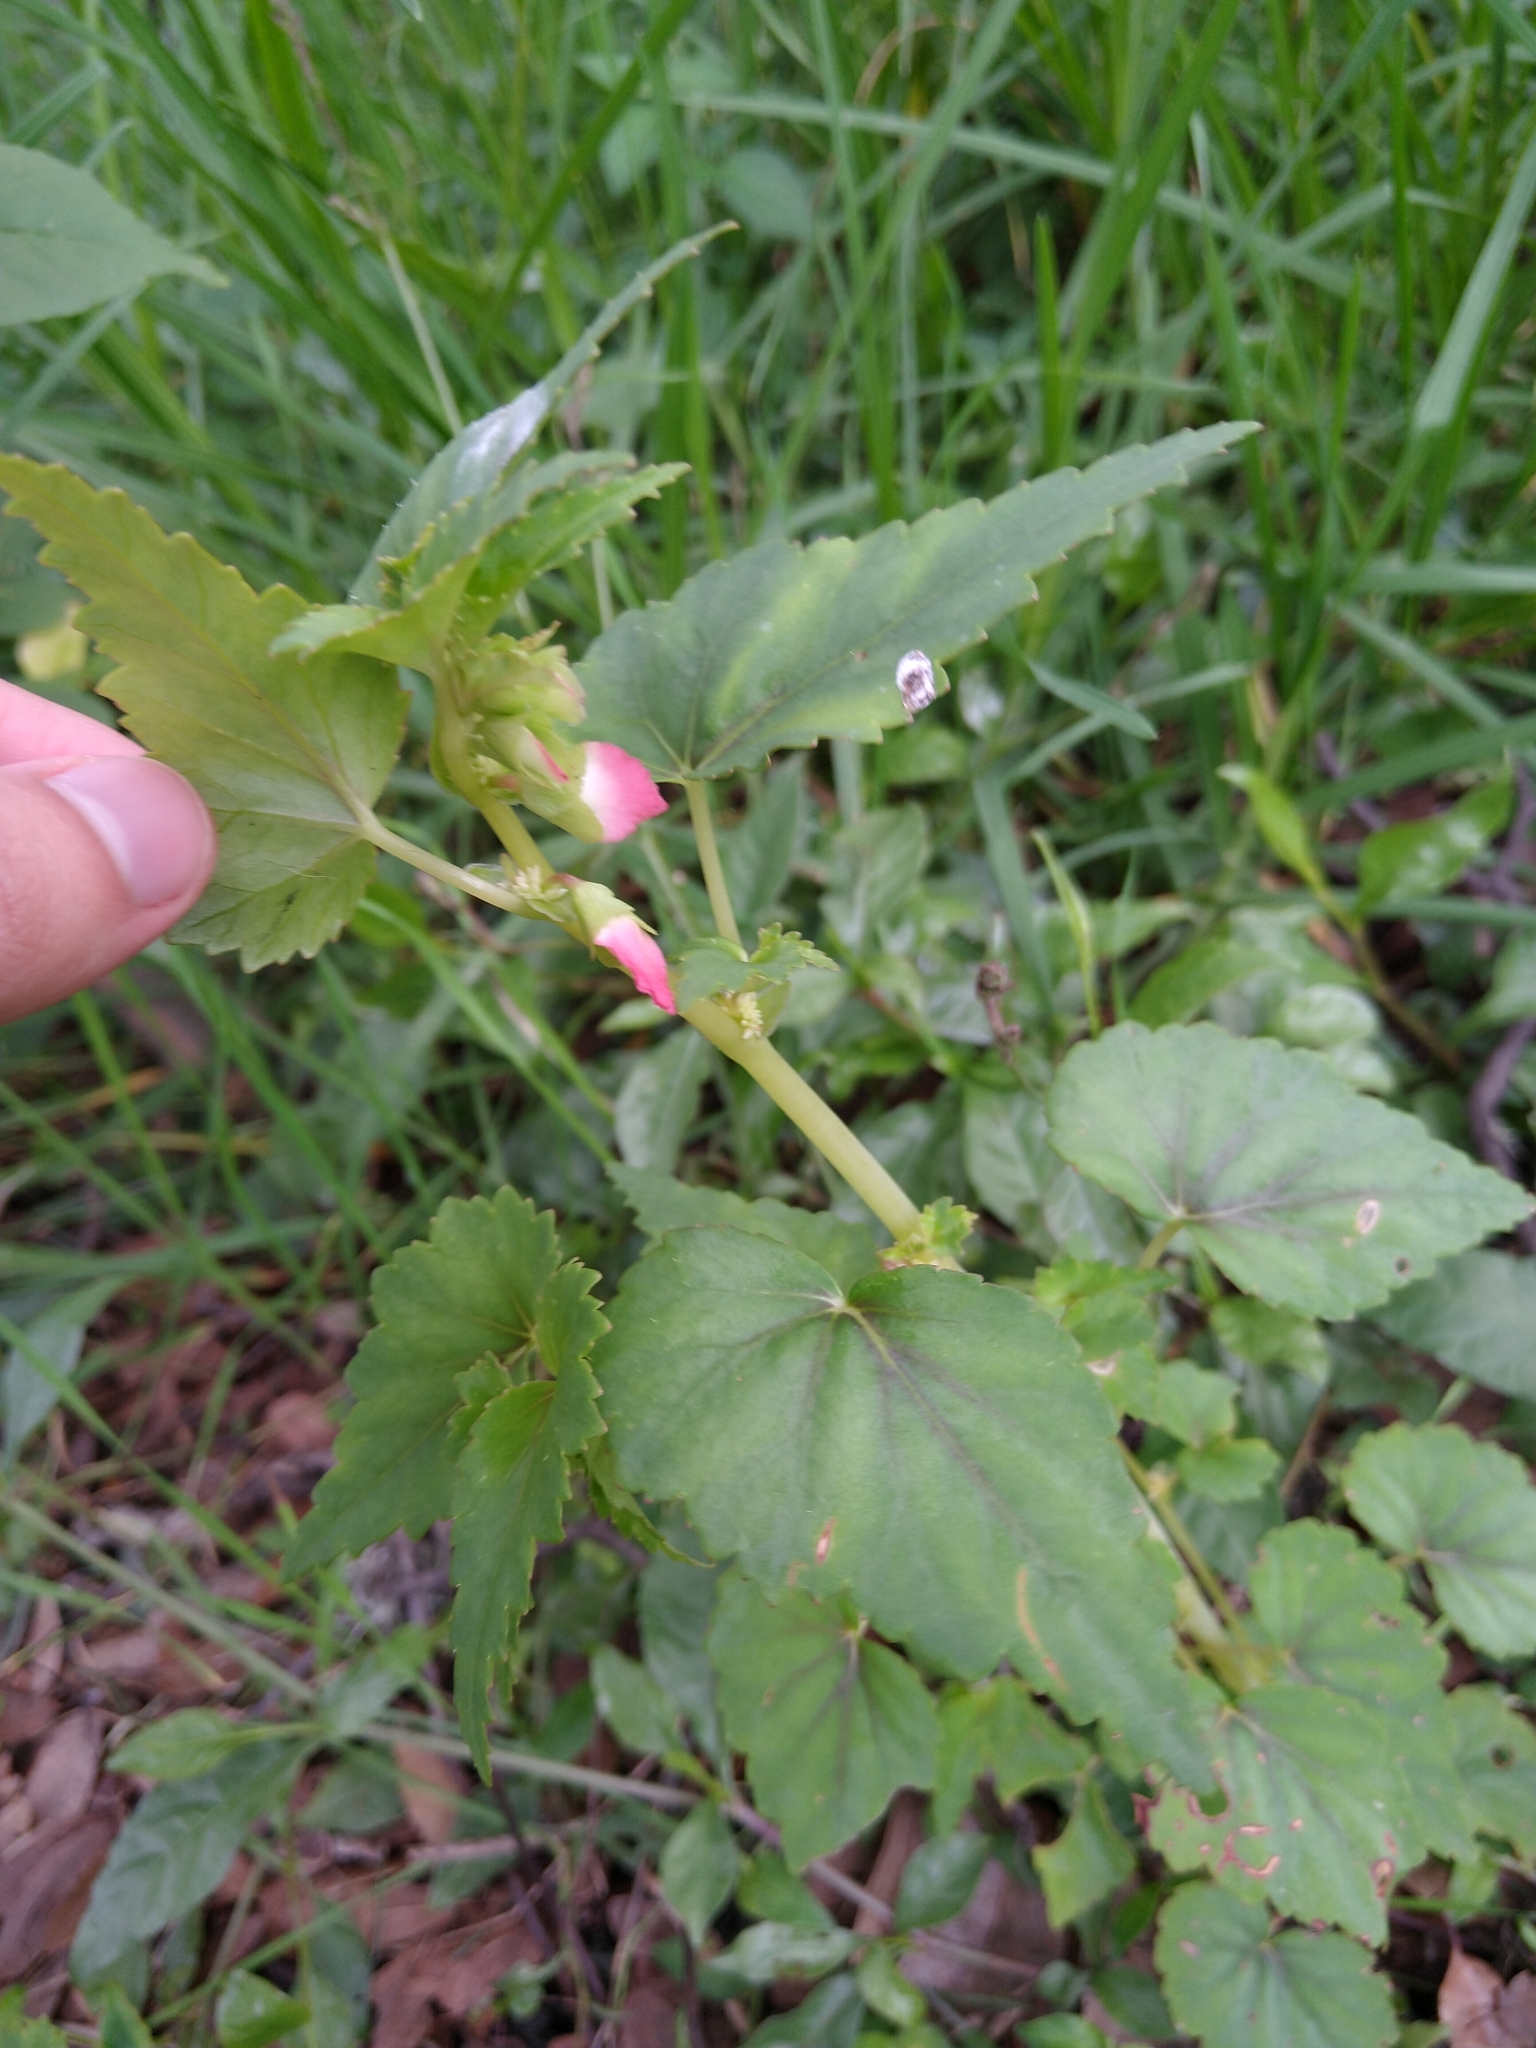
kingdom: Plantae
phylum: Tracheophyta
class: Magnoliopsida
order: Cucurbitales
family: Begoniaceae
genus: Begonia
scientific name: Begonia gracilis
